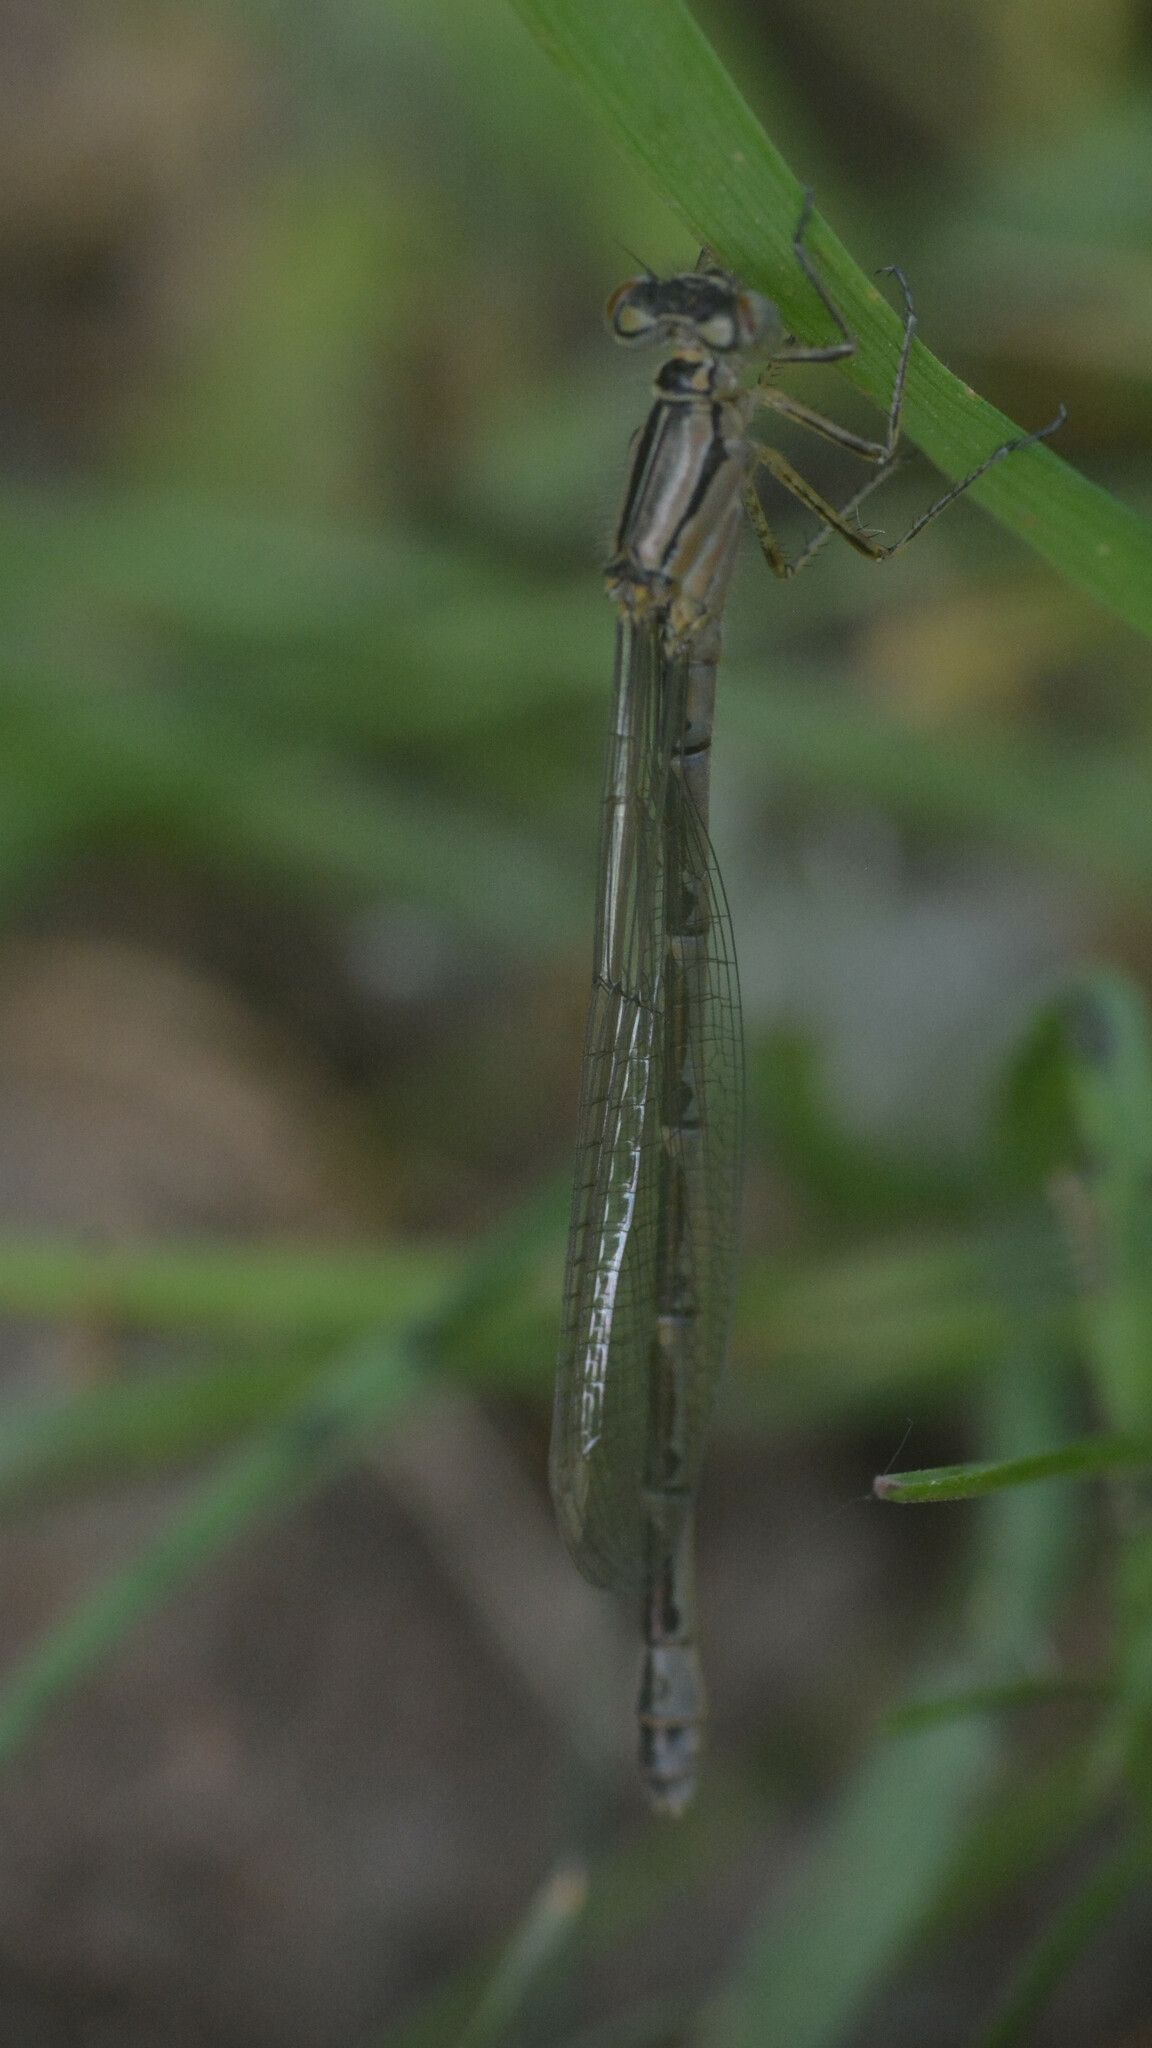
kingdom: Animalia
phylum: Arthropoda
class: Insecta
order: Odonata
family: Coenagrionidae
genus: Enallagma
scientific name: Enallagma cyathigerum
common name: Common blue damselfly
